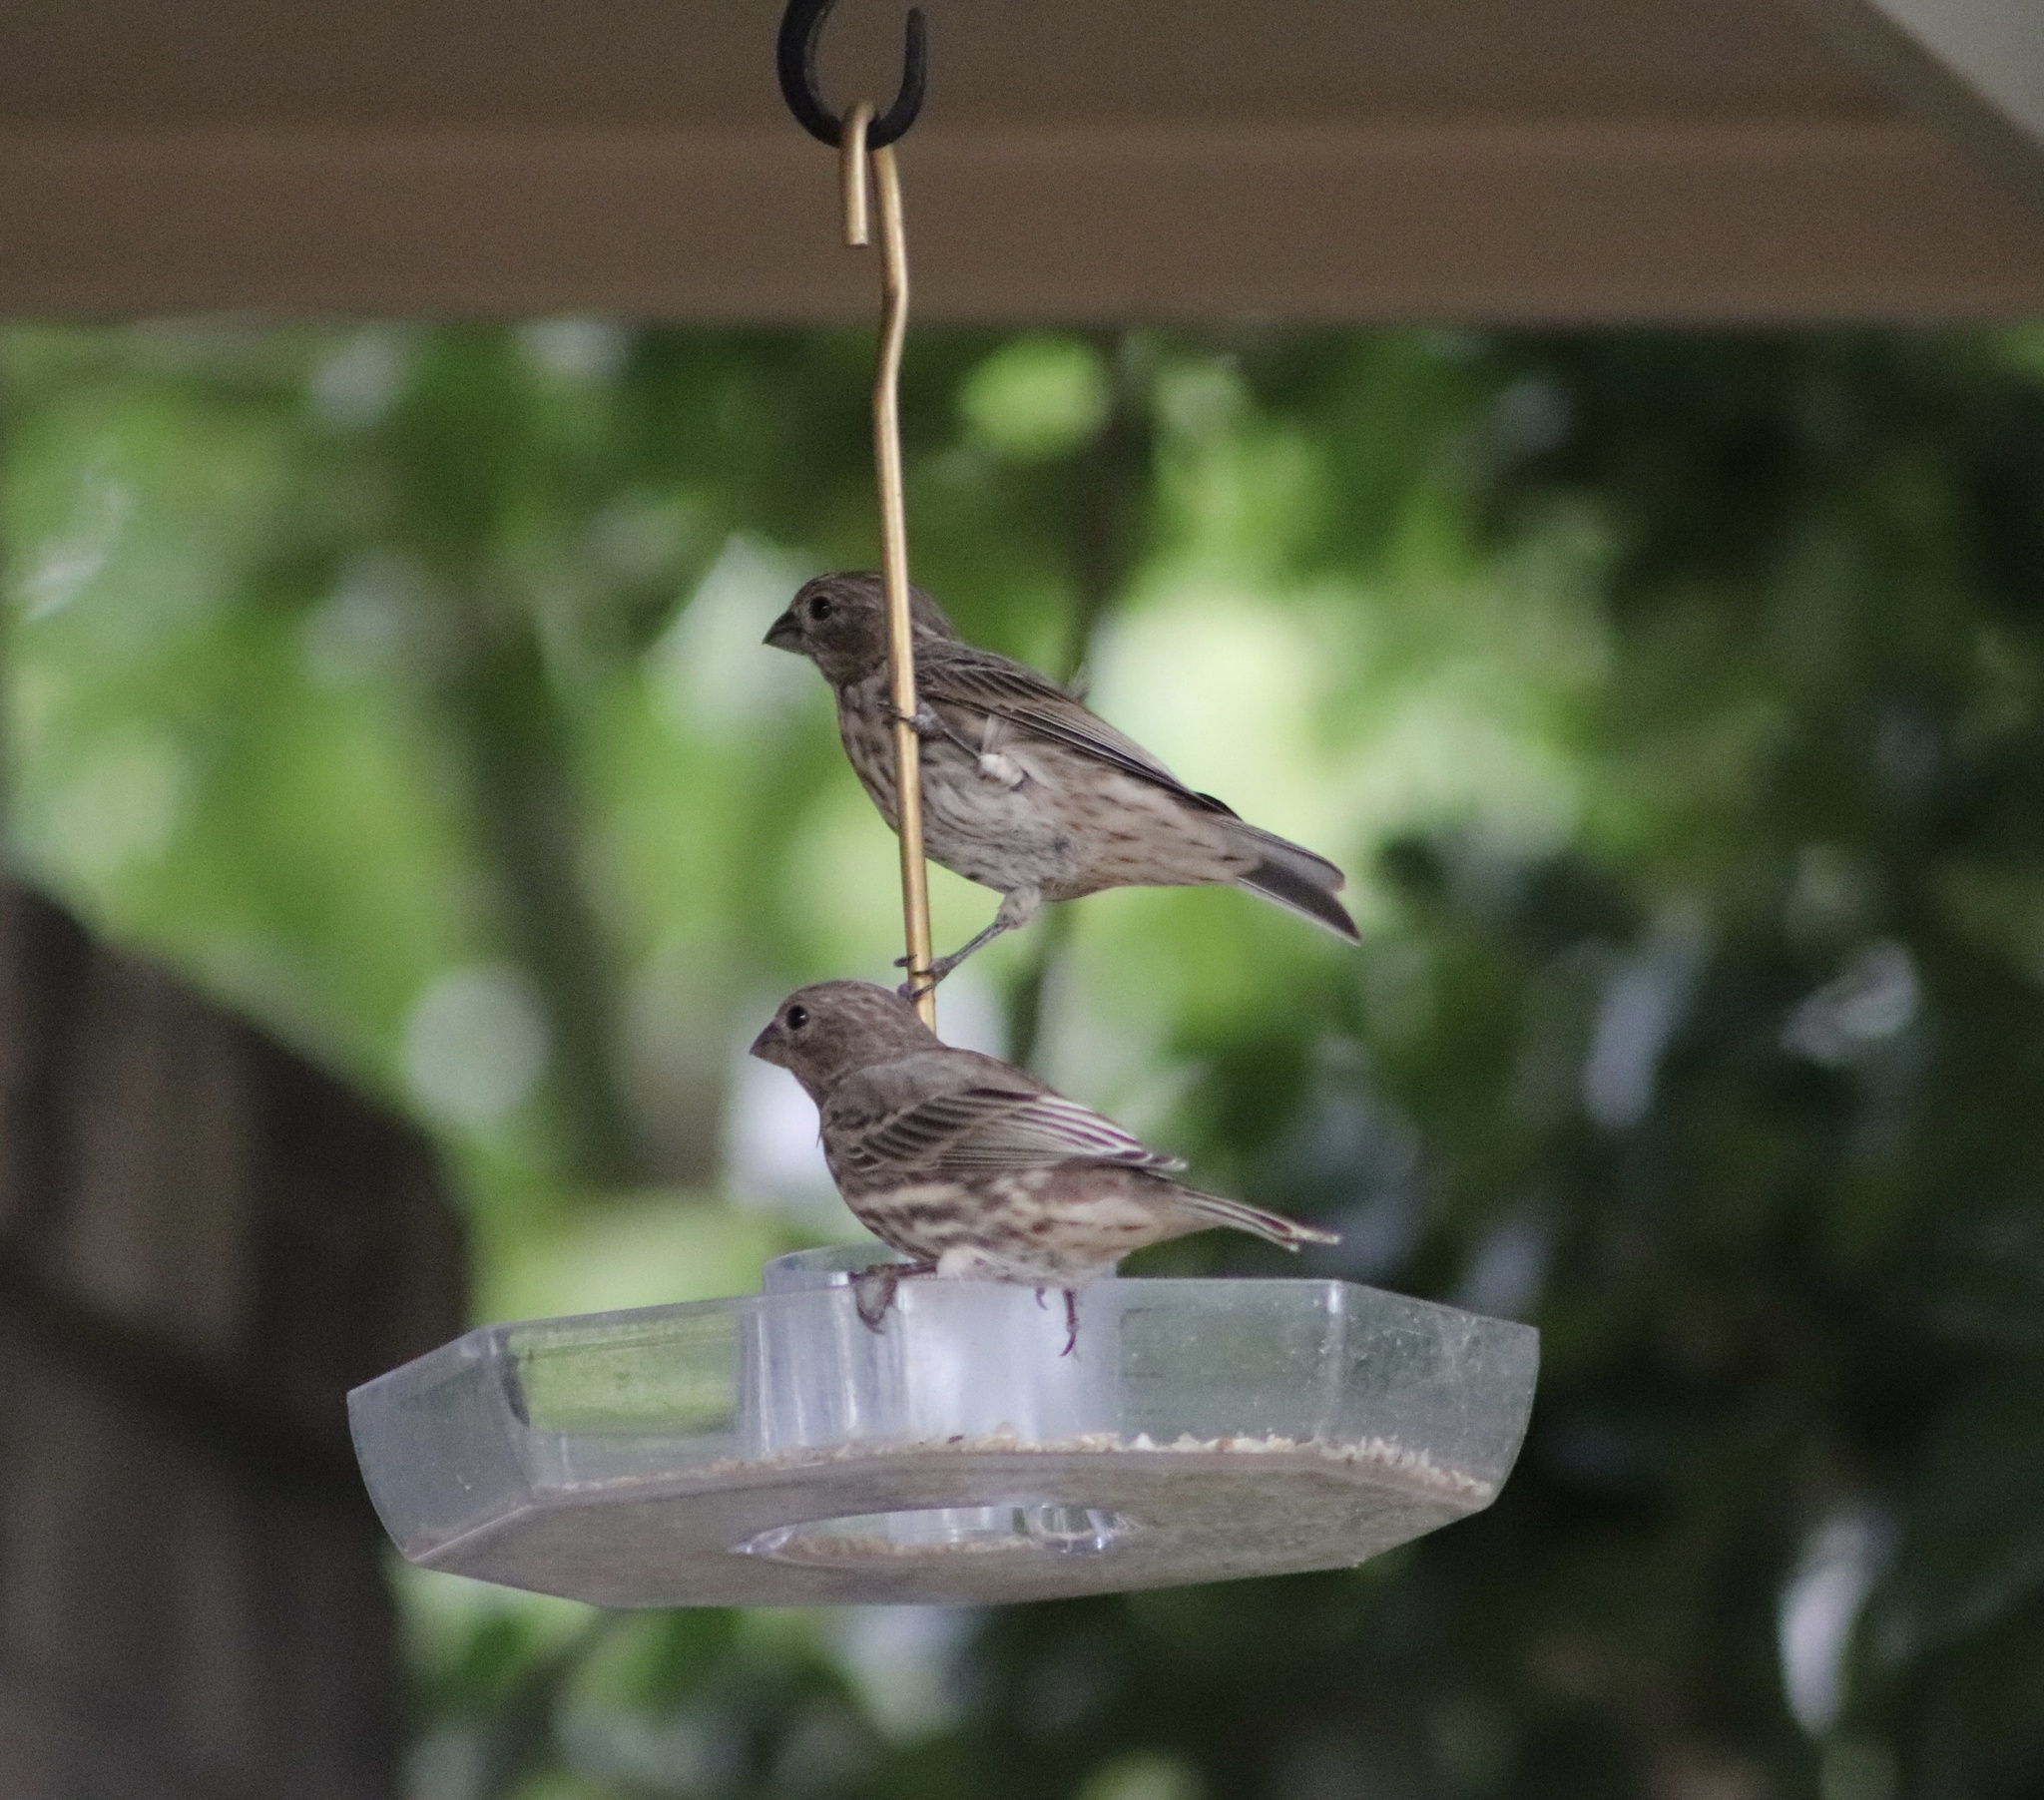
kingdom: Animalia
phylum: Chordata
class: Aves
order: Passeriformes
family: Fringillidae
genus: Haemorhous
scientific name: Haemorhous mexicanus
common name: House finch
